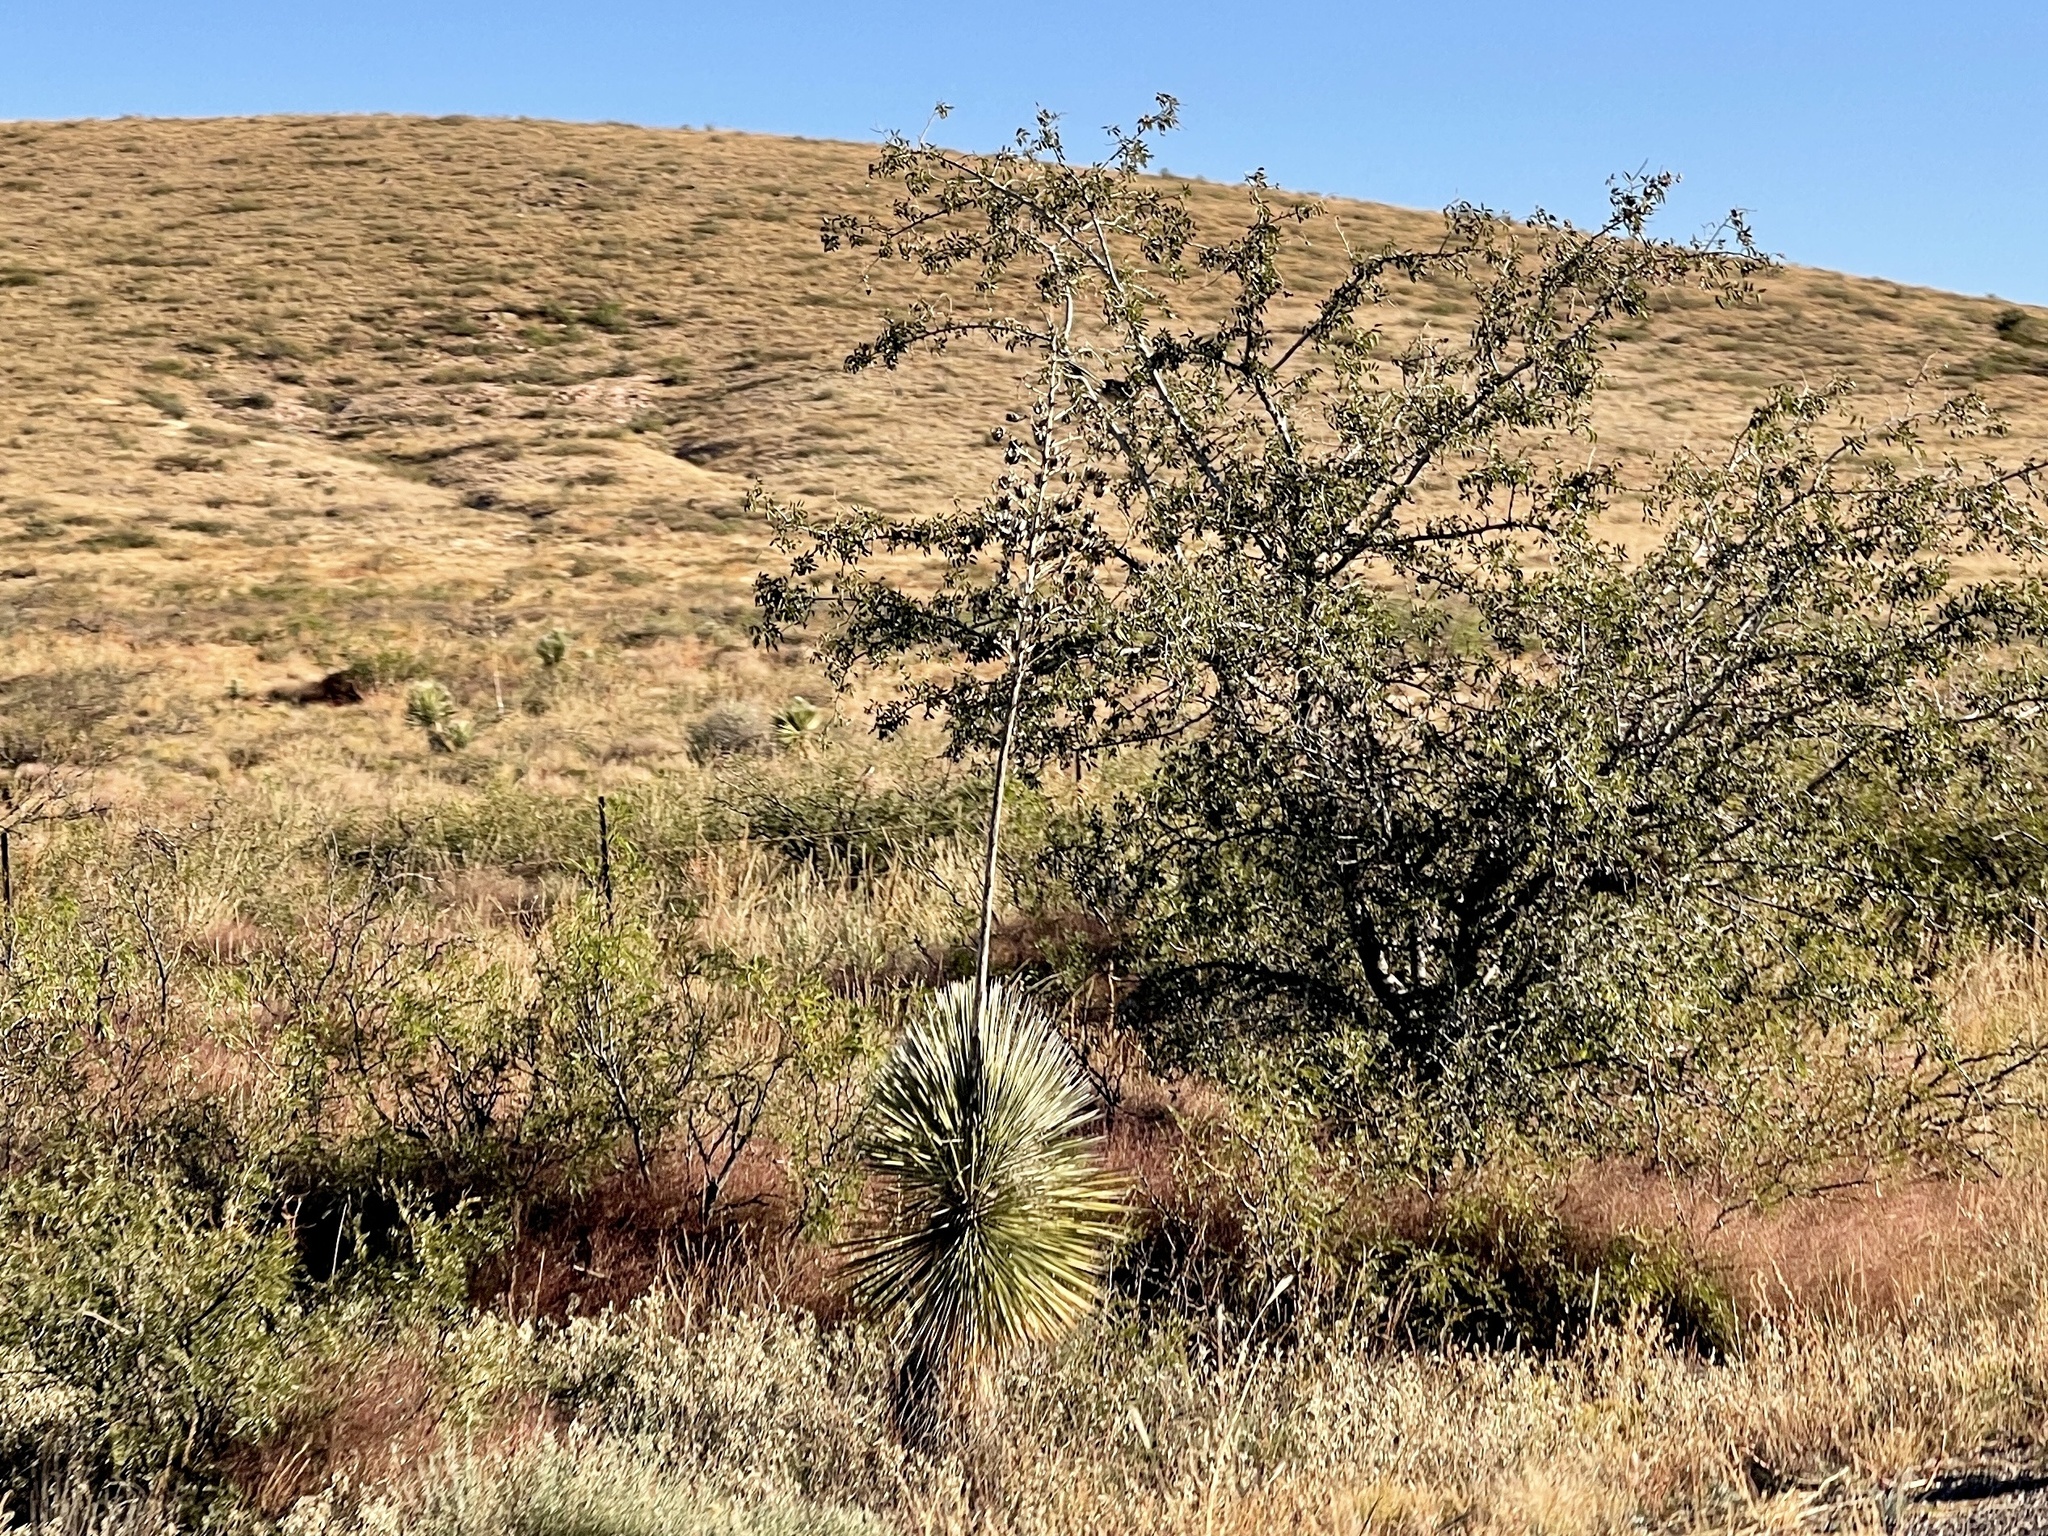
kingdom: Plantae
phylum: Tracheophyta
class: Liliopsida
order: Asparagales
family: Asparagaceae
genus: Yucca
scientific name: Yucca elata
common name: Palmella
